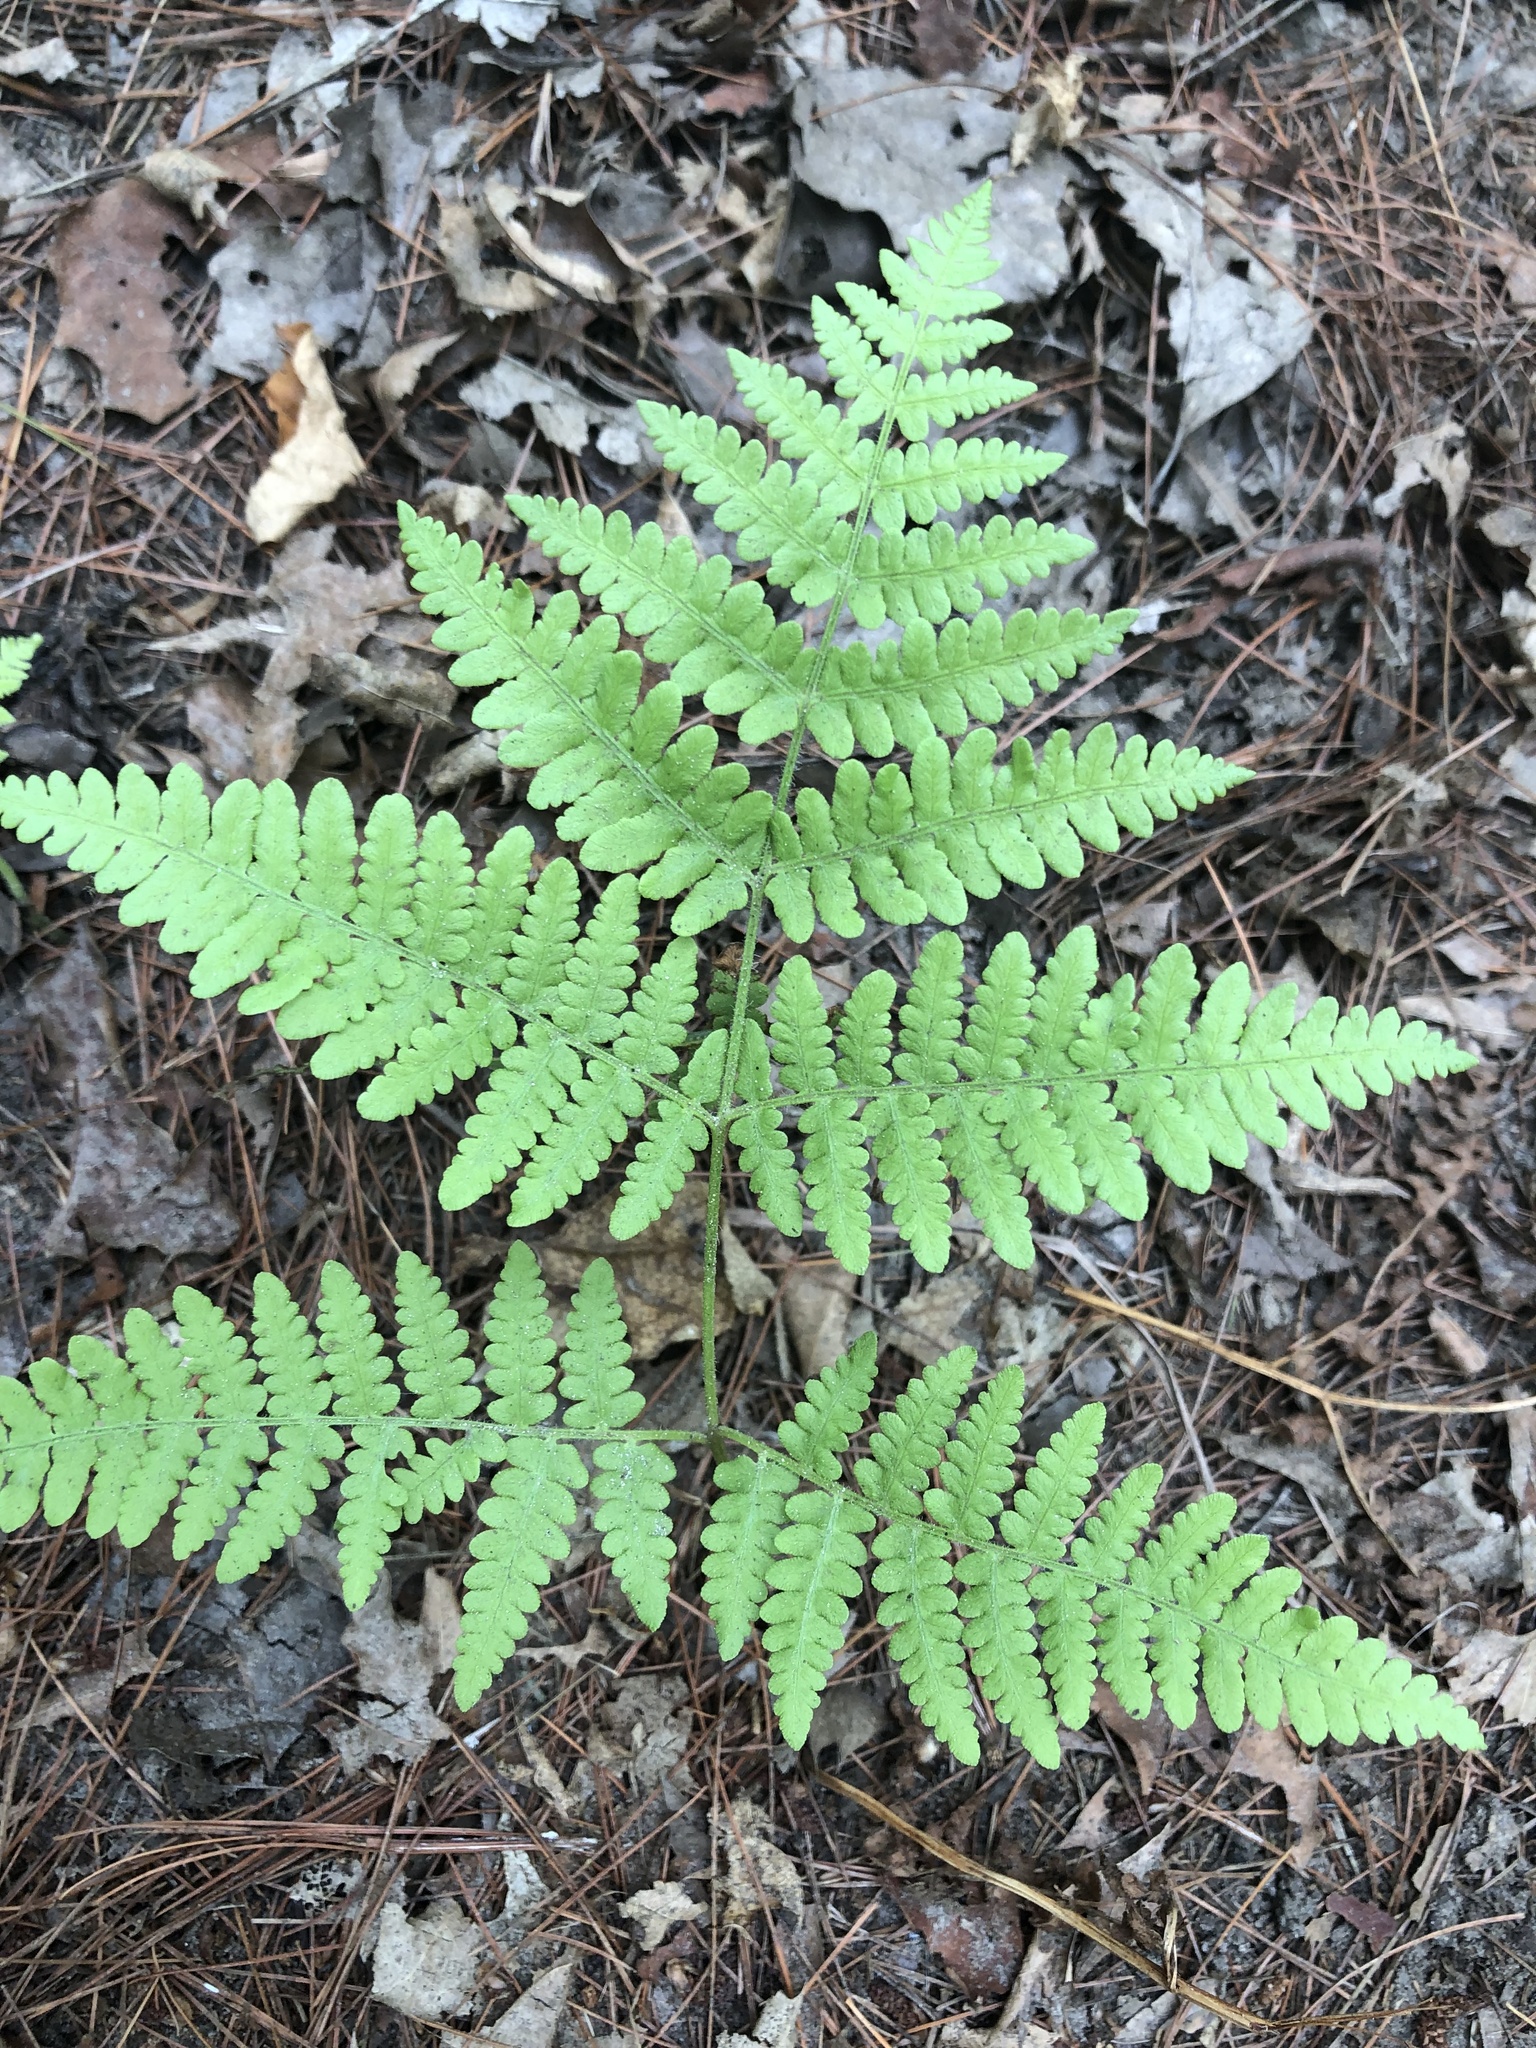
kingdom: Plantae
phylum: Tracheophyta
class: Polypodiopsida
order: Polypodiales
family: Dennstaedtiaceae
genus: Pteridium
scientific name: Pteridium aquilinum
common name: Bracken
